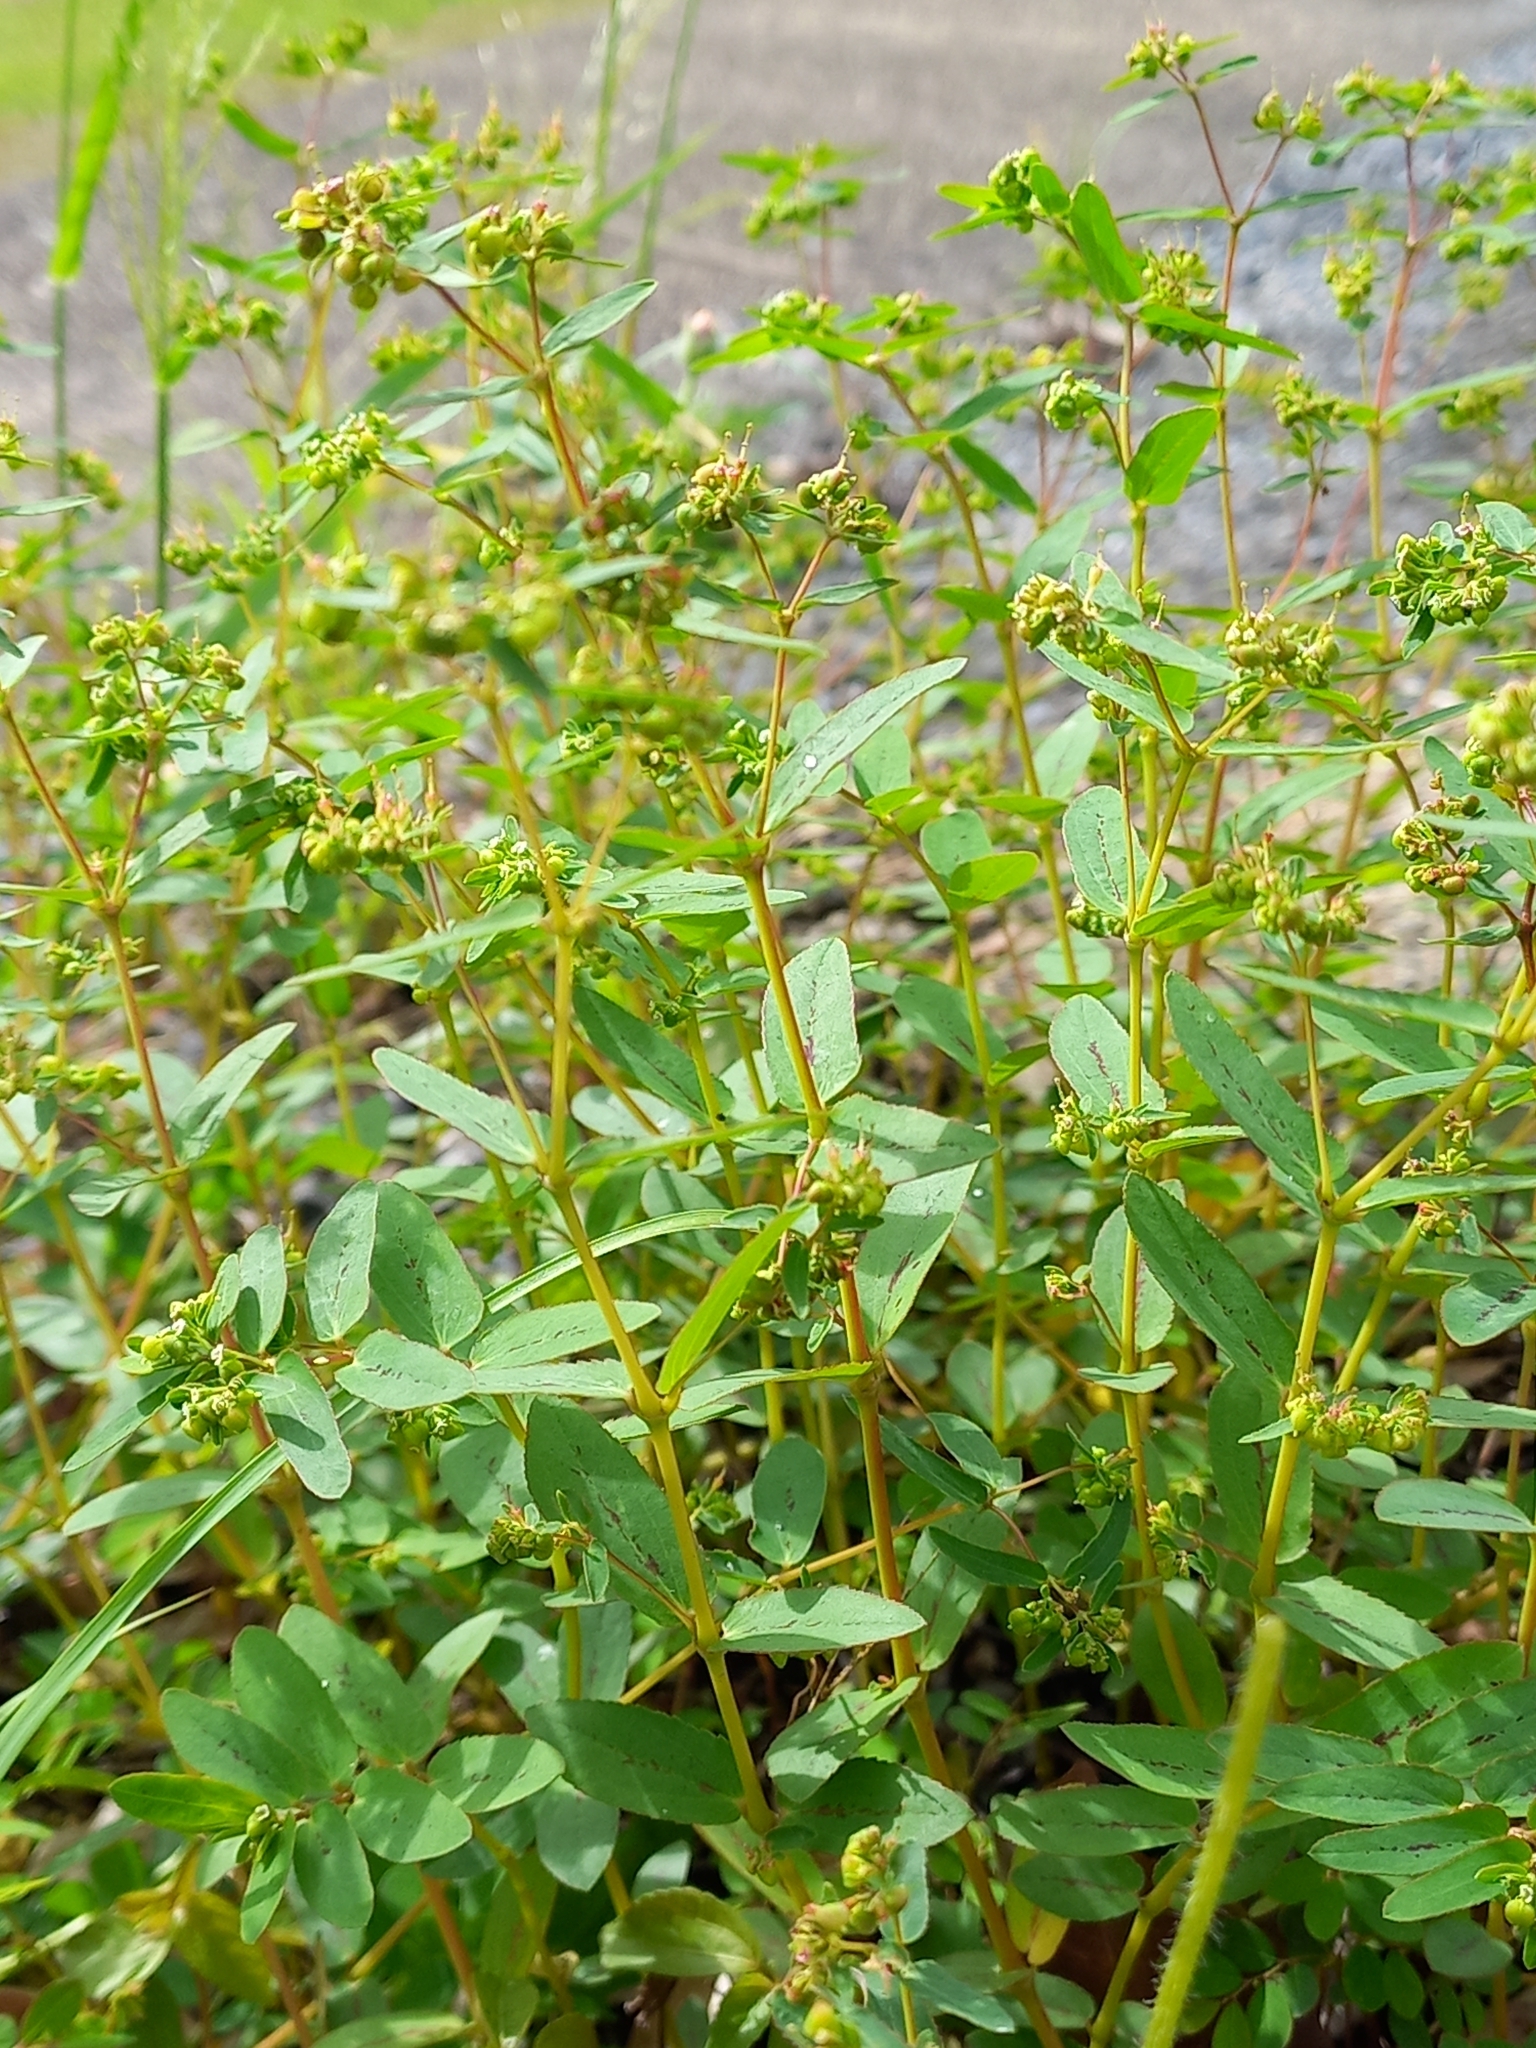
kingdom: Plantae
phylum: Tracheophyta
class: Magnoliopsida
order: Malpighiales
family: Euphorbiaceae
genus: Euphorbia
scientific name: Euphorbia hyssopifolia
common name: Hyssopleaf sandmat
